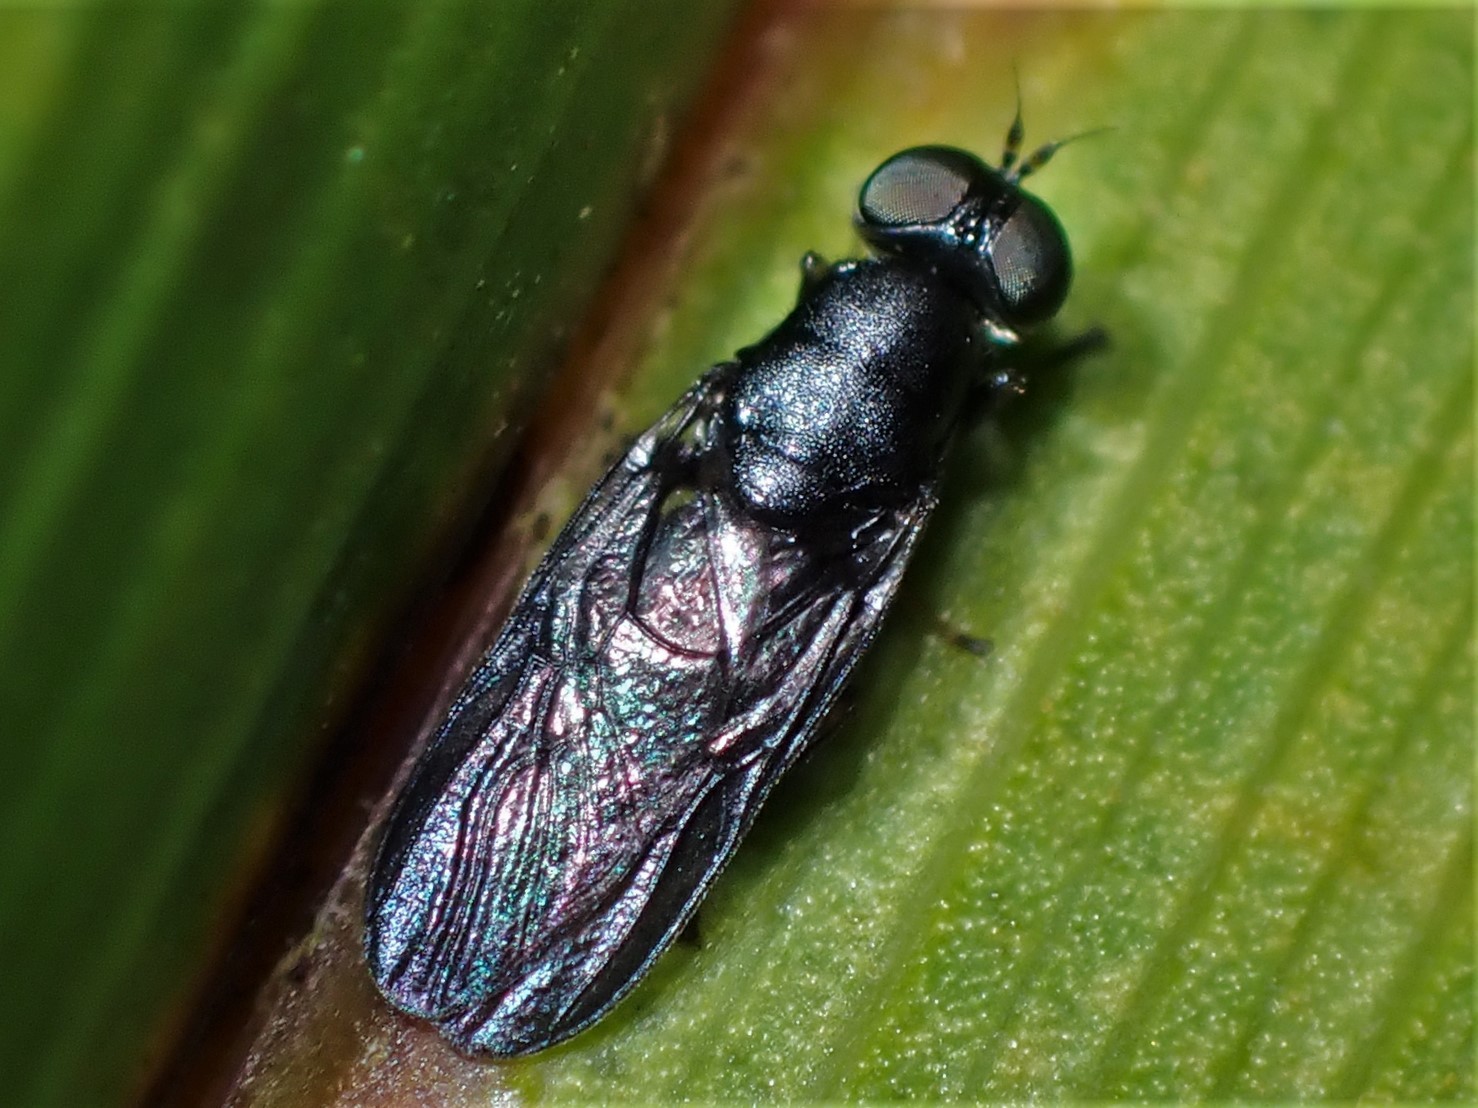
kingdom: Animalia
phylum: Arthropoda
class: Insecta
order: Diptera
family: Stratiomyidae
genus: Dysbiota
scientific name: Dysbiota parvula
